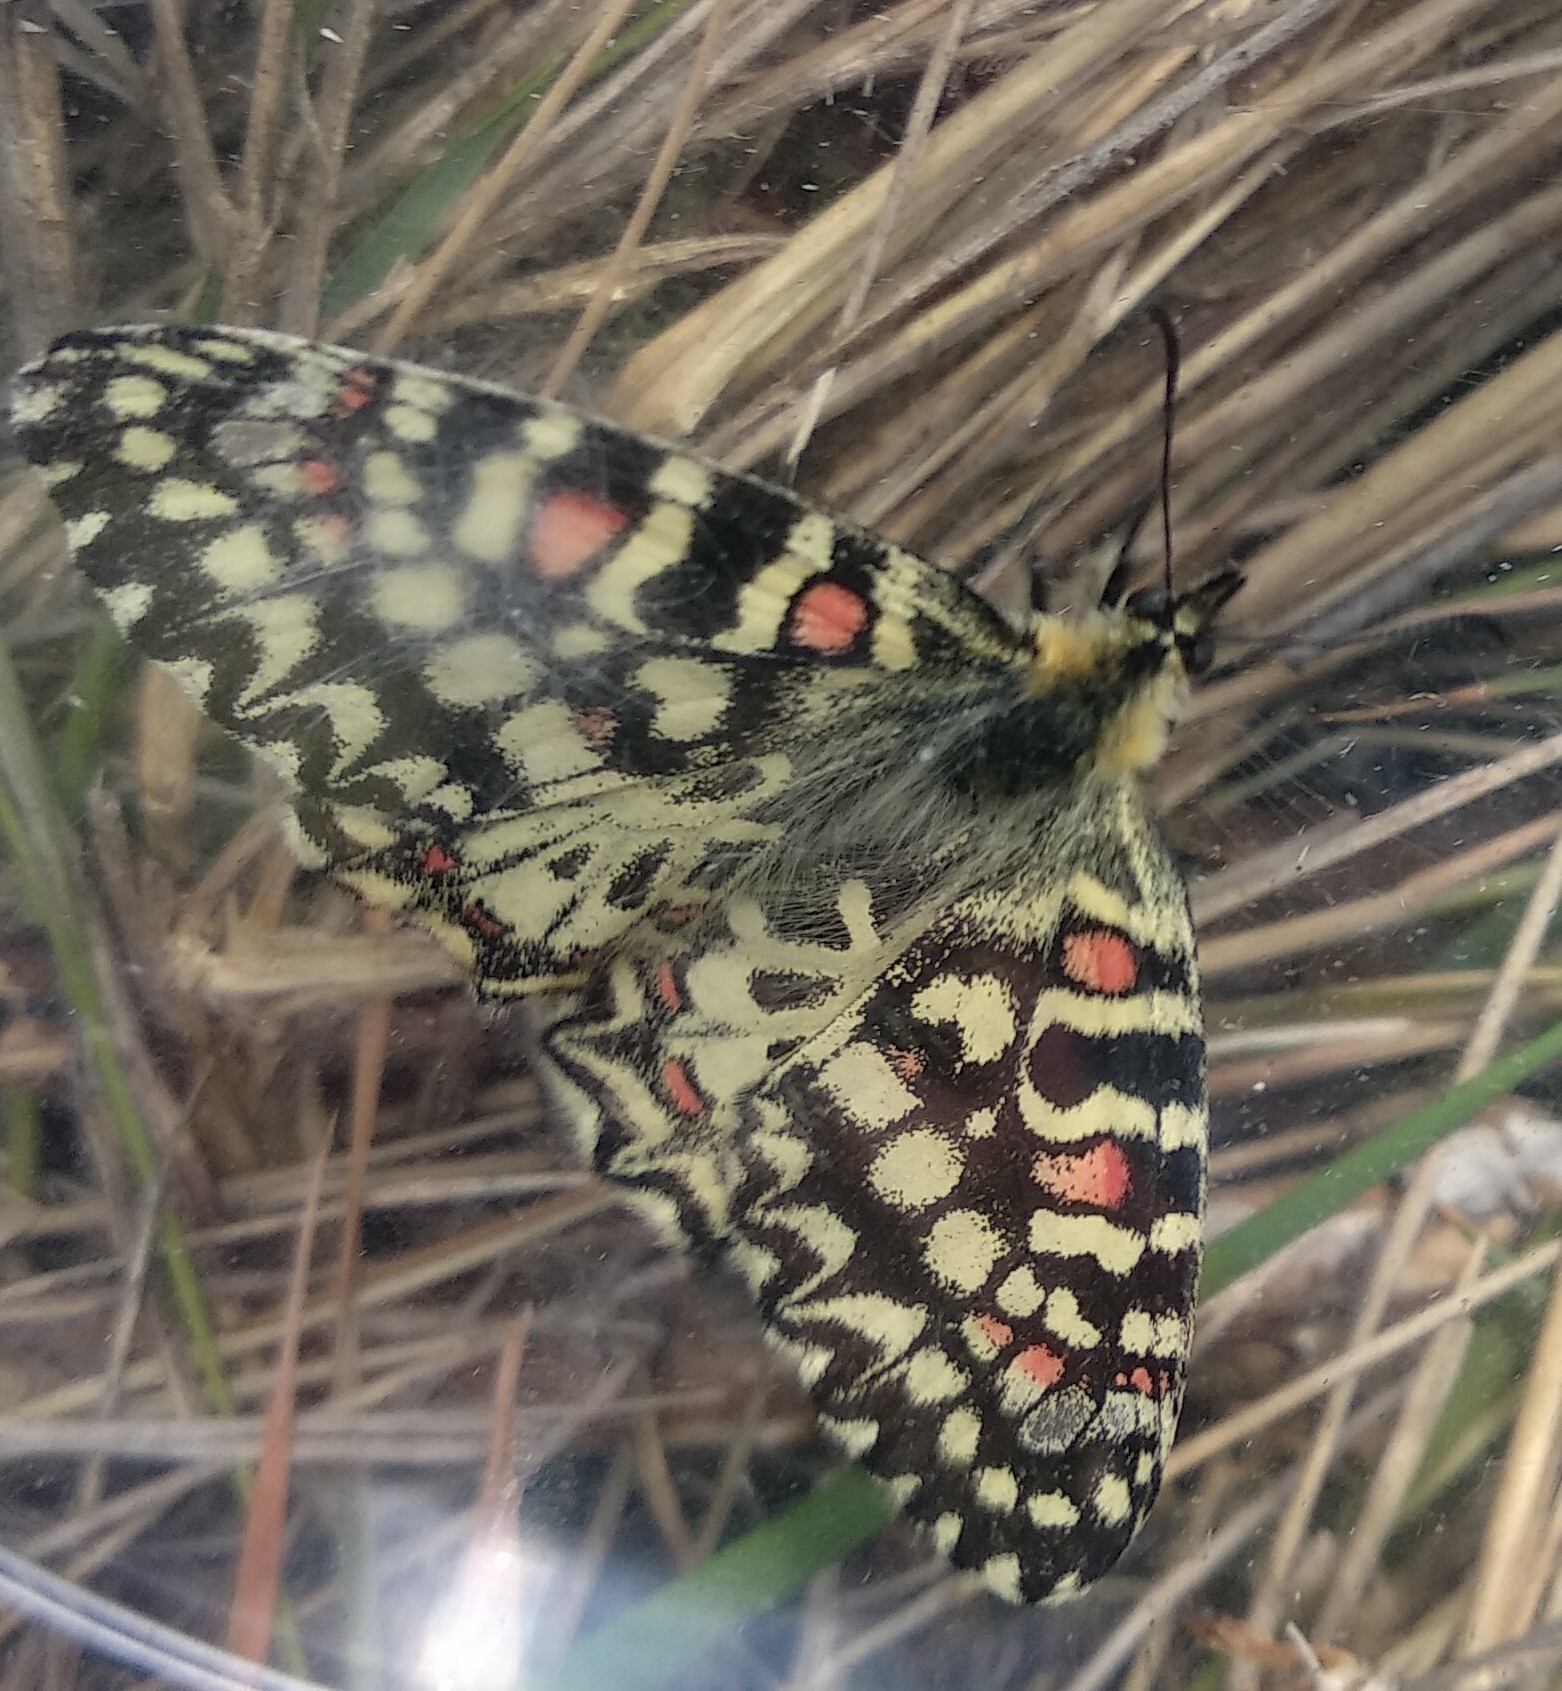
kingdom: Animalia
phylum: Arthropoda
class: Insecta
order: Lepidoptera
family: Papilionidae
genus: Zerynthia
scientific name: Zerynthia rumina
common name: Spanish festoon
